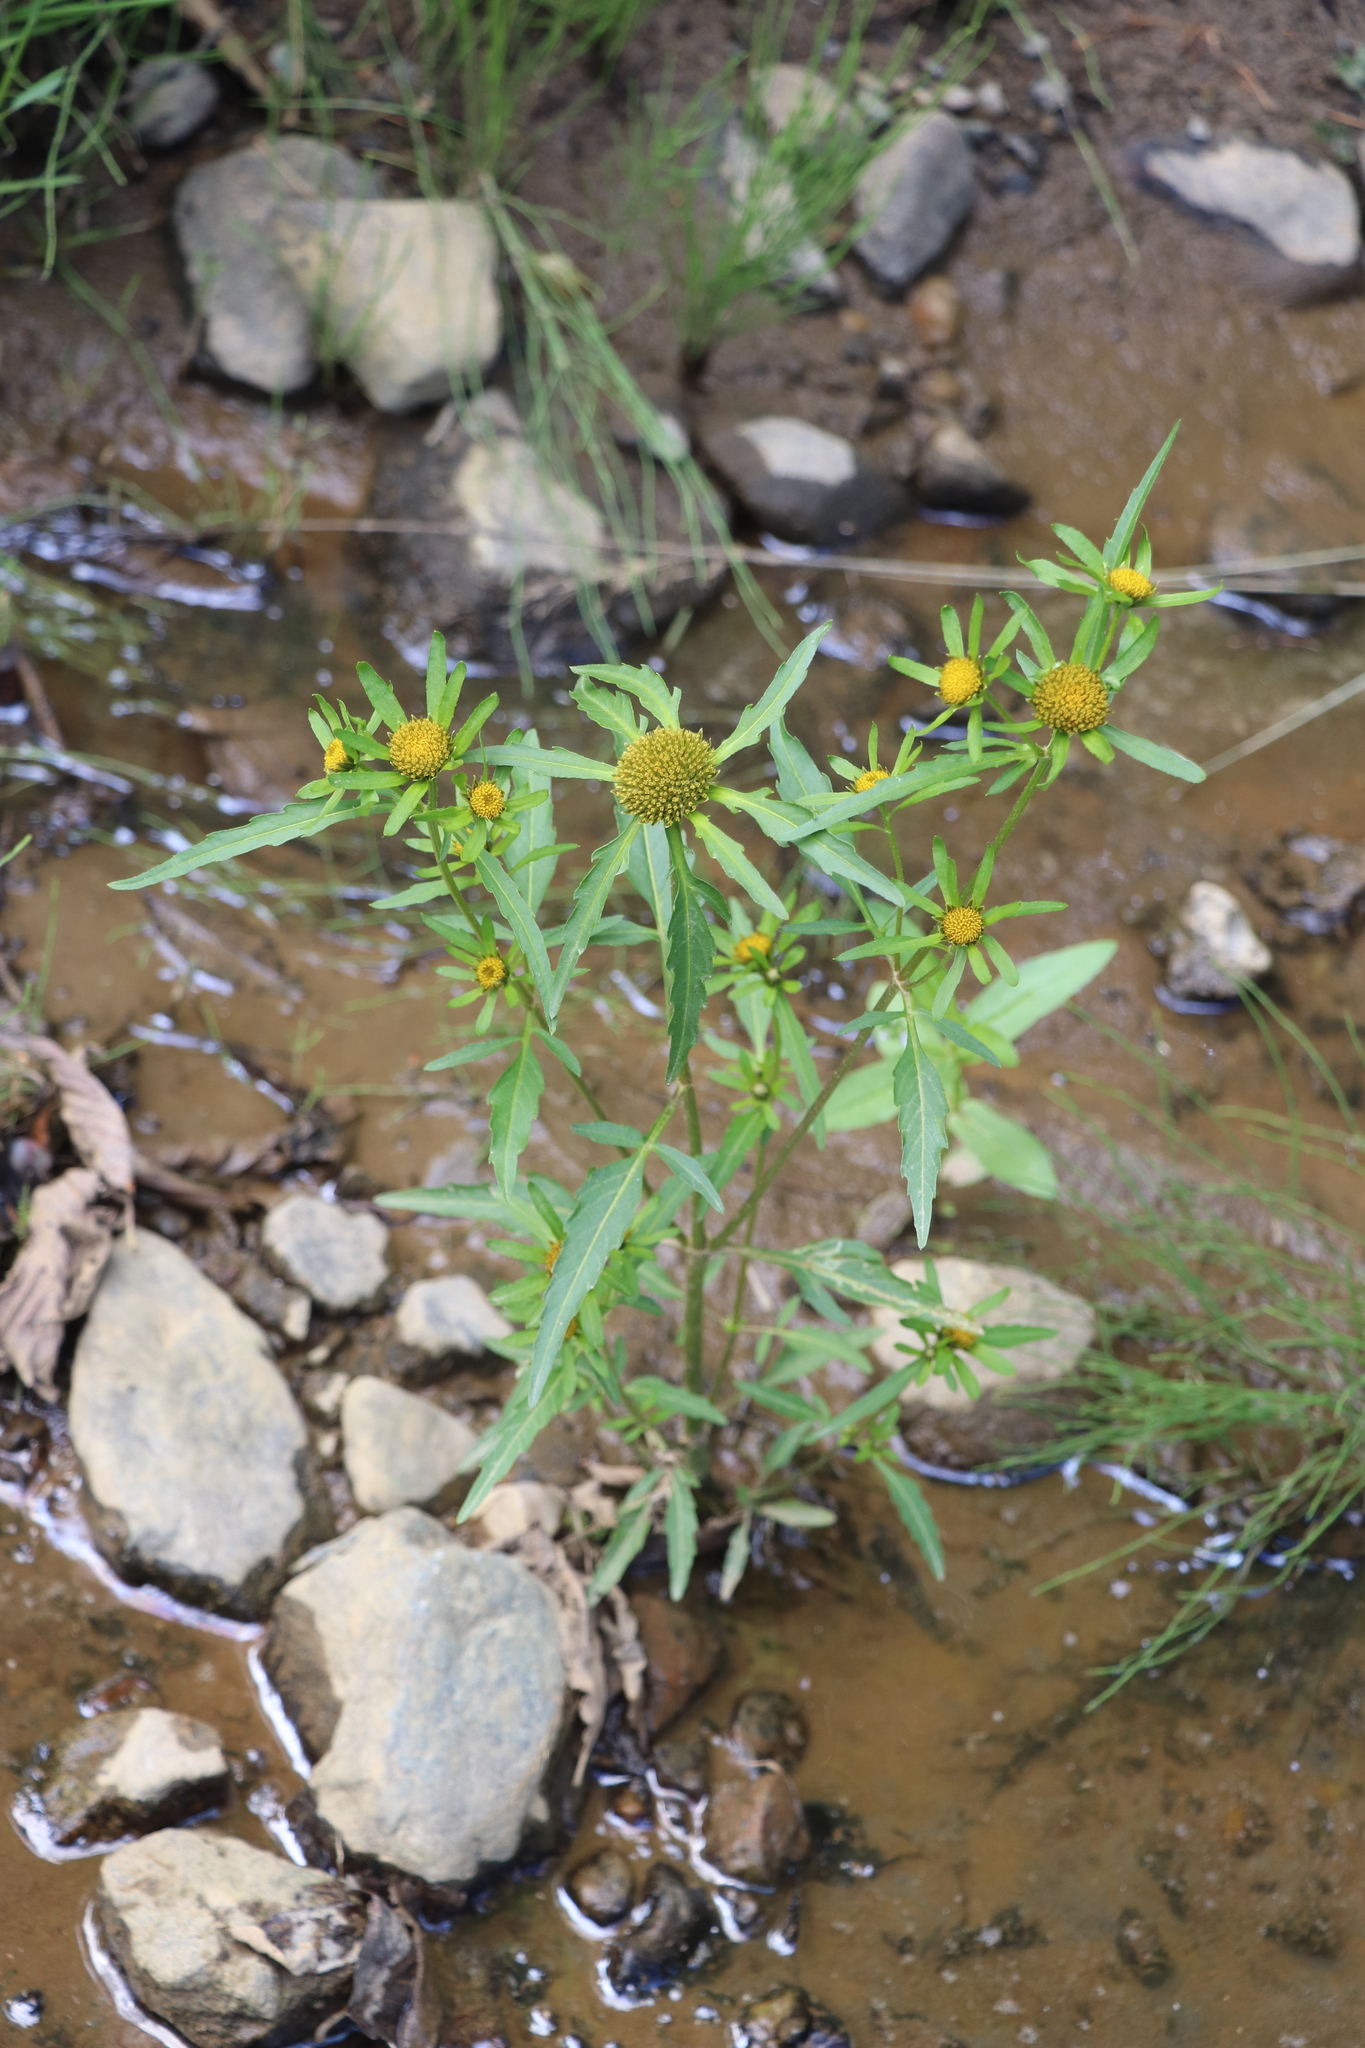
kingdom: Plantae
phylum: Tracheophyta
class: Magnoliopsida
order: Asterales
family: Asteraceae
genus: Bidens
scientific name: Bidens radiata
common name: Radiating bur-marigold
